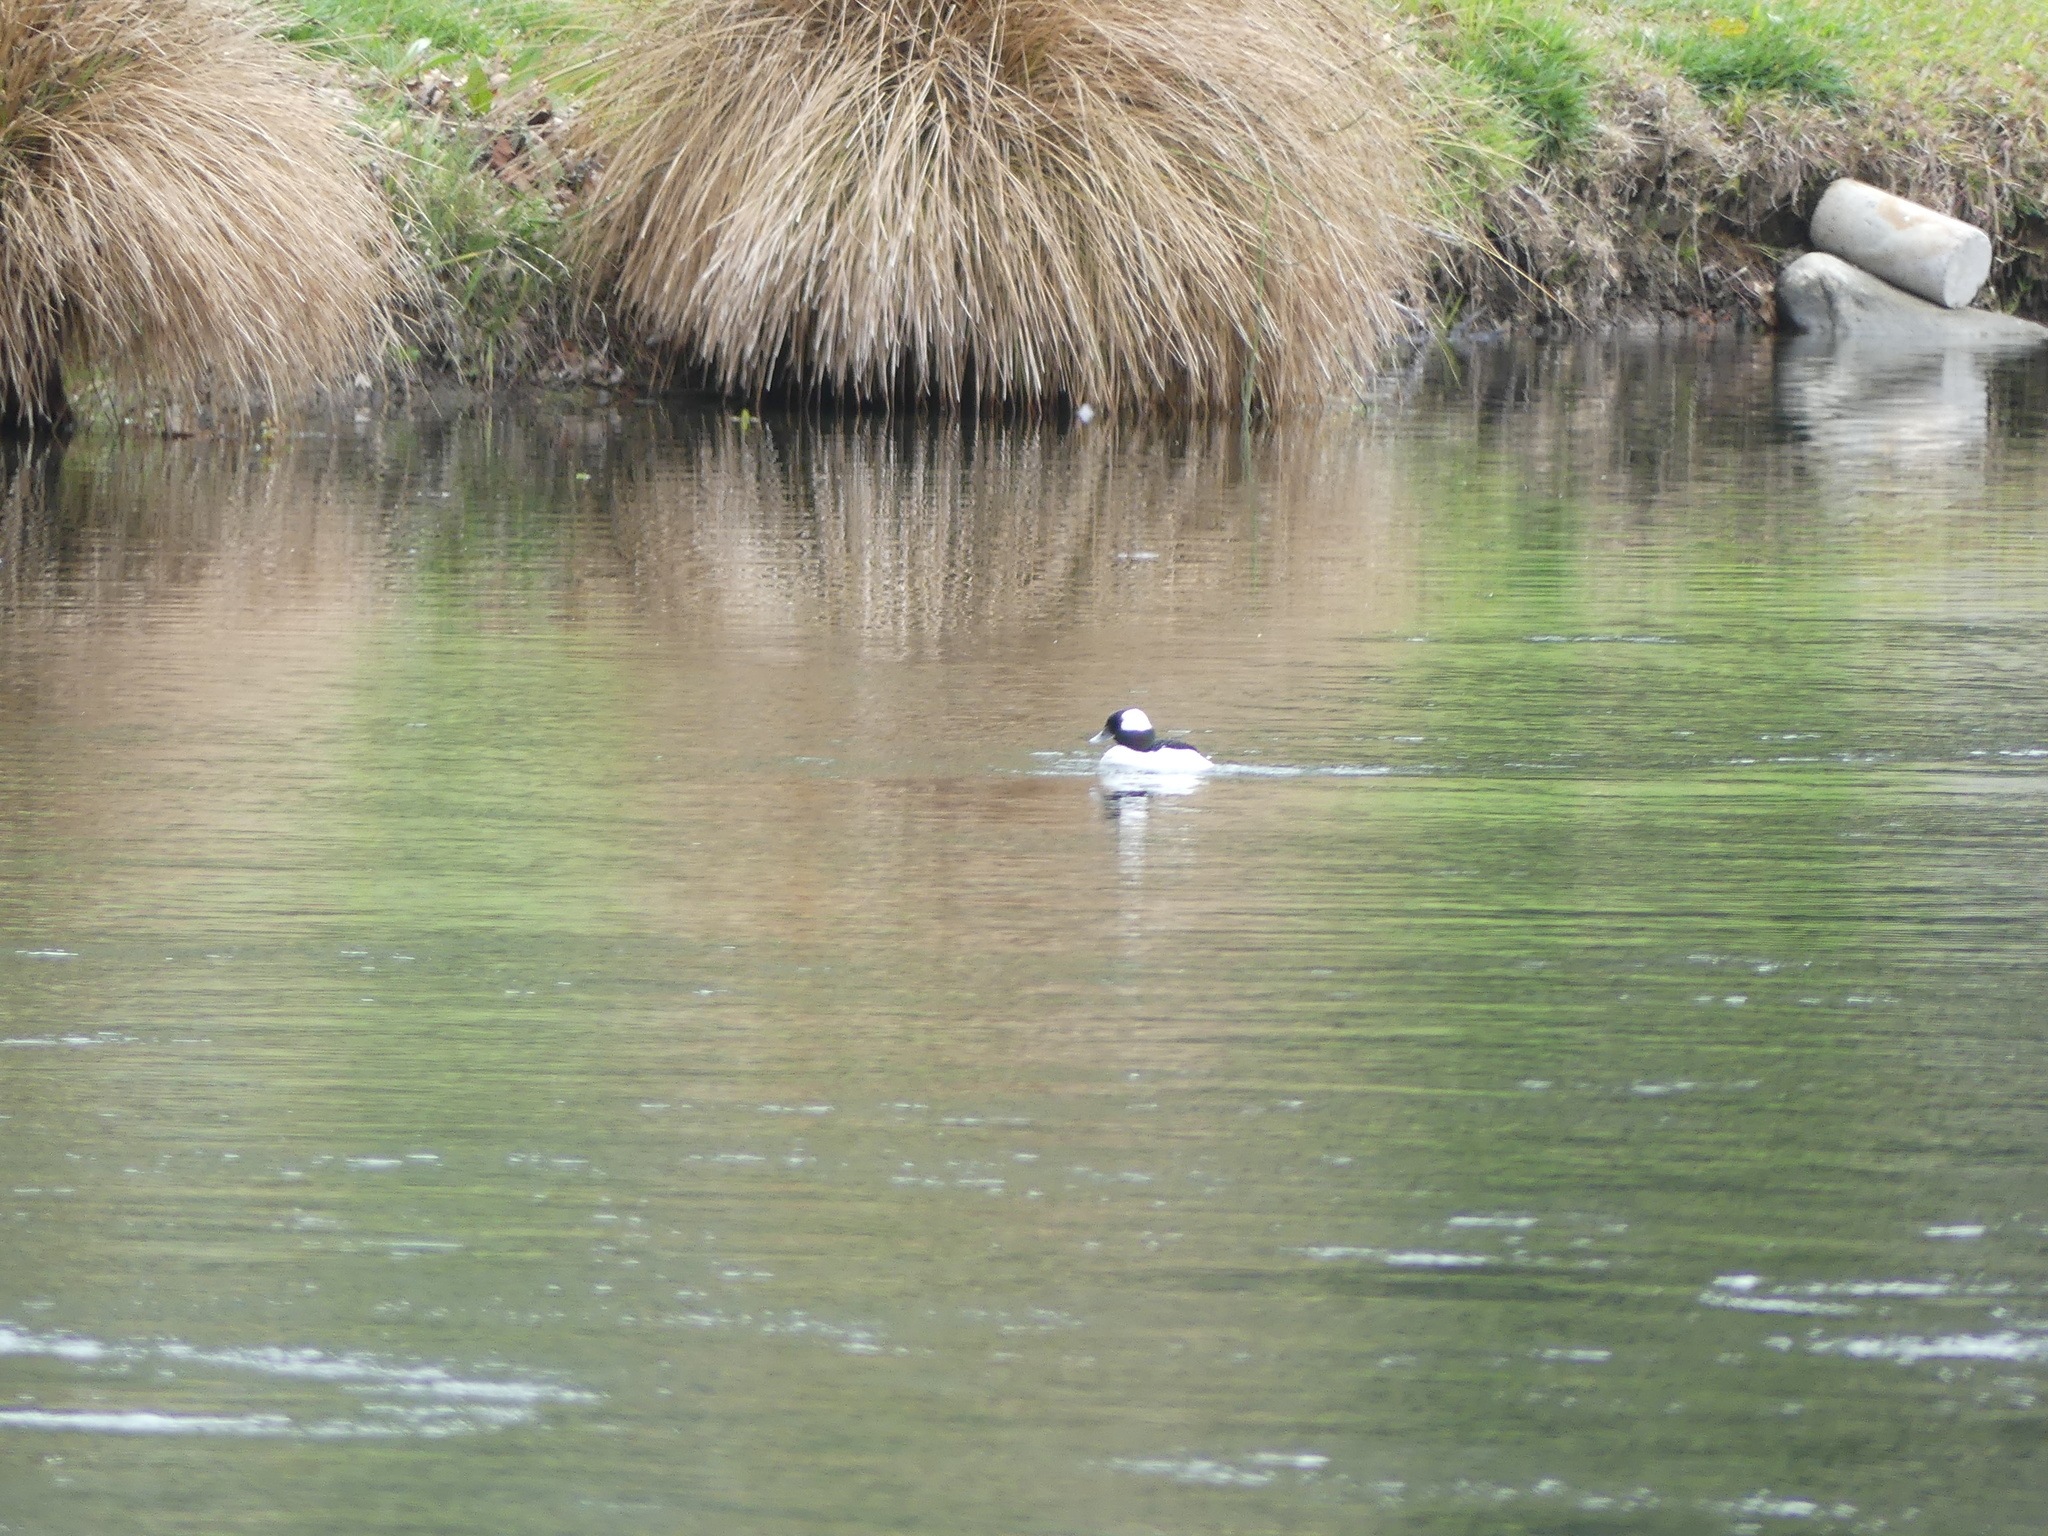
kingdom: Animalia
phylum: Chordata
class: Aves
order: Anseriformes
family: Anatidae
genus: Bucephala
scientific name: Bucephala albeola
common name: Bufflehead
